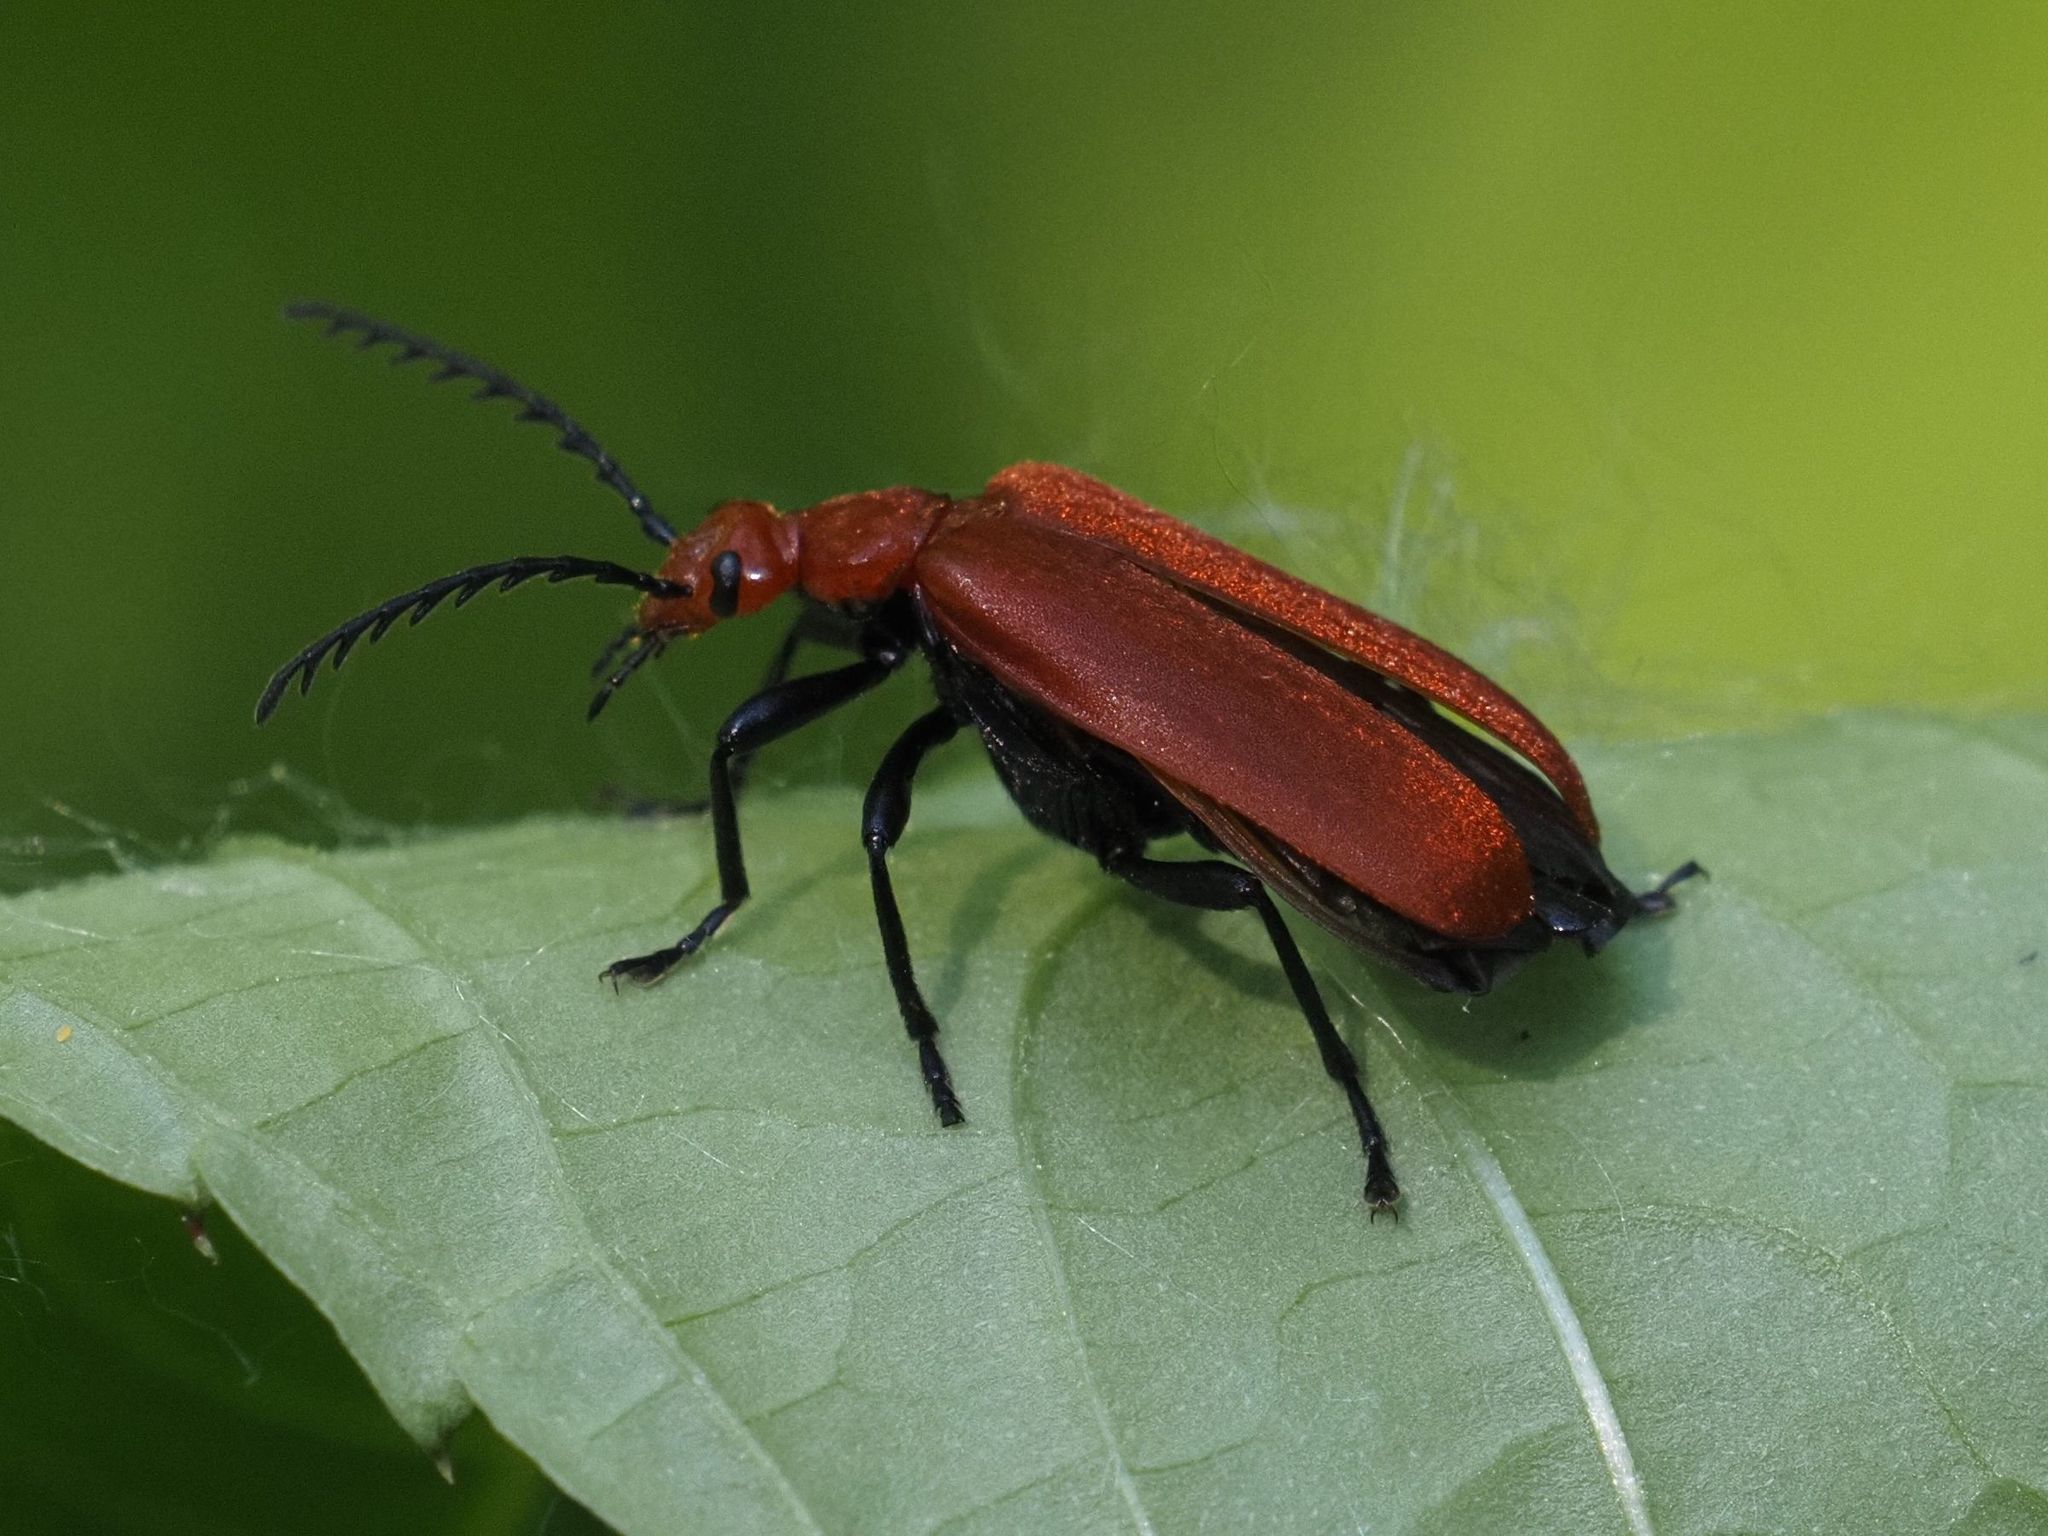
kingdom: Animalia
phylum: Arthropoda
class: Insecta
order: Coleoptera
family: Pyrochroidae
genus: Pyrochroa
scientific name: Pyrochroa serraticornis
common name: Red-headed cardinal beetle
